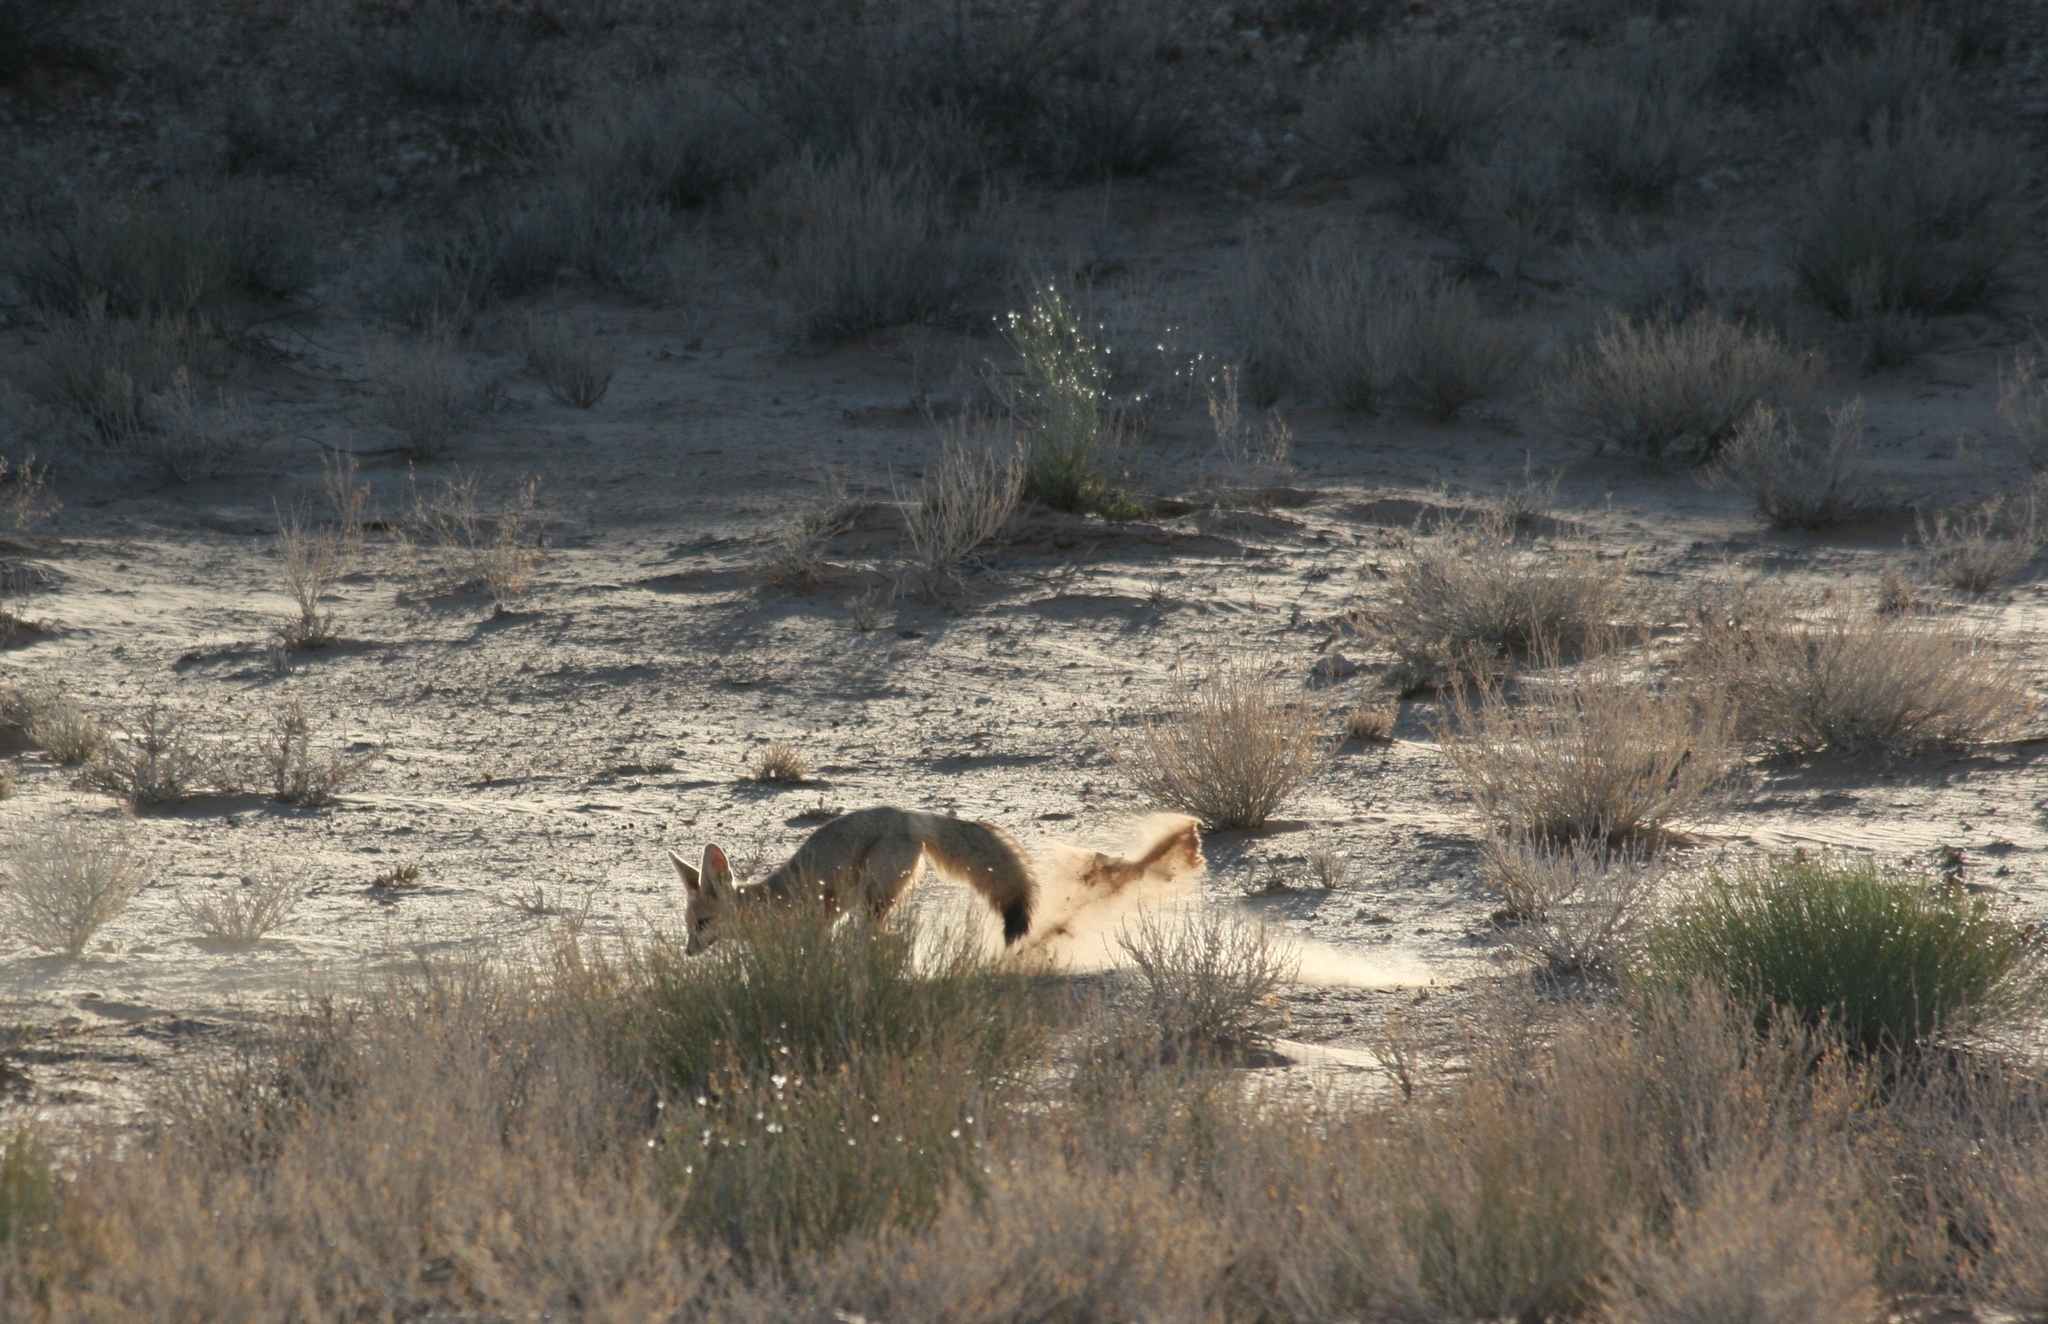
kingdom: Animalia
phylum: Chordata
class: Mammalia
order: Carnivora
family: Canidae
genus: Vulpes
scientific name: Vulpes chama
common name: Cape fox
